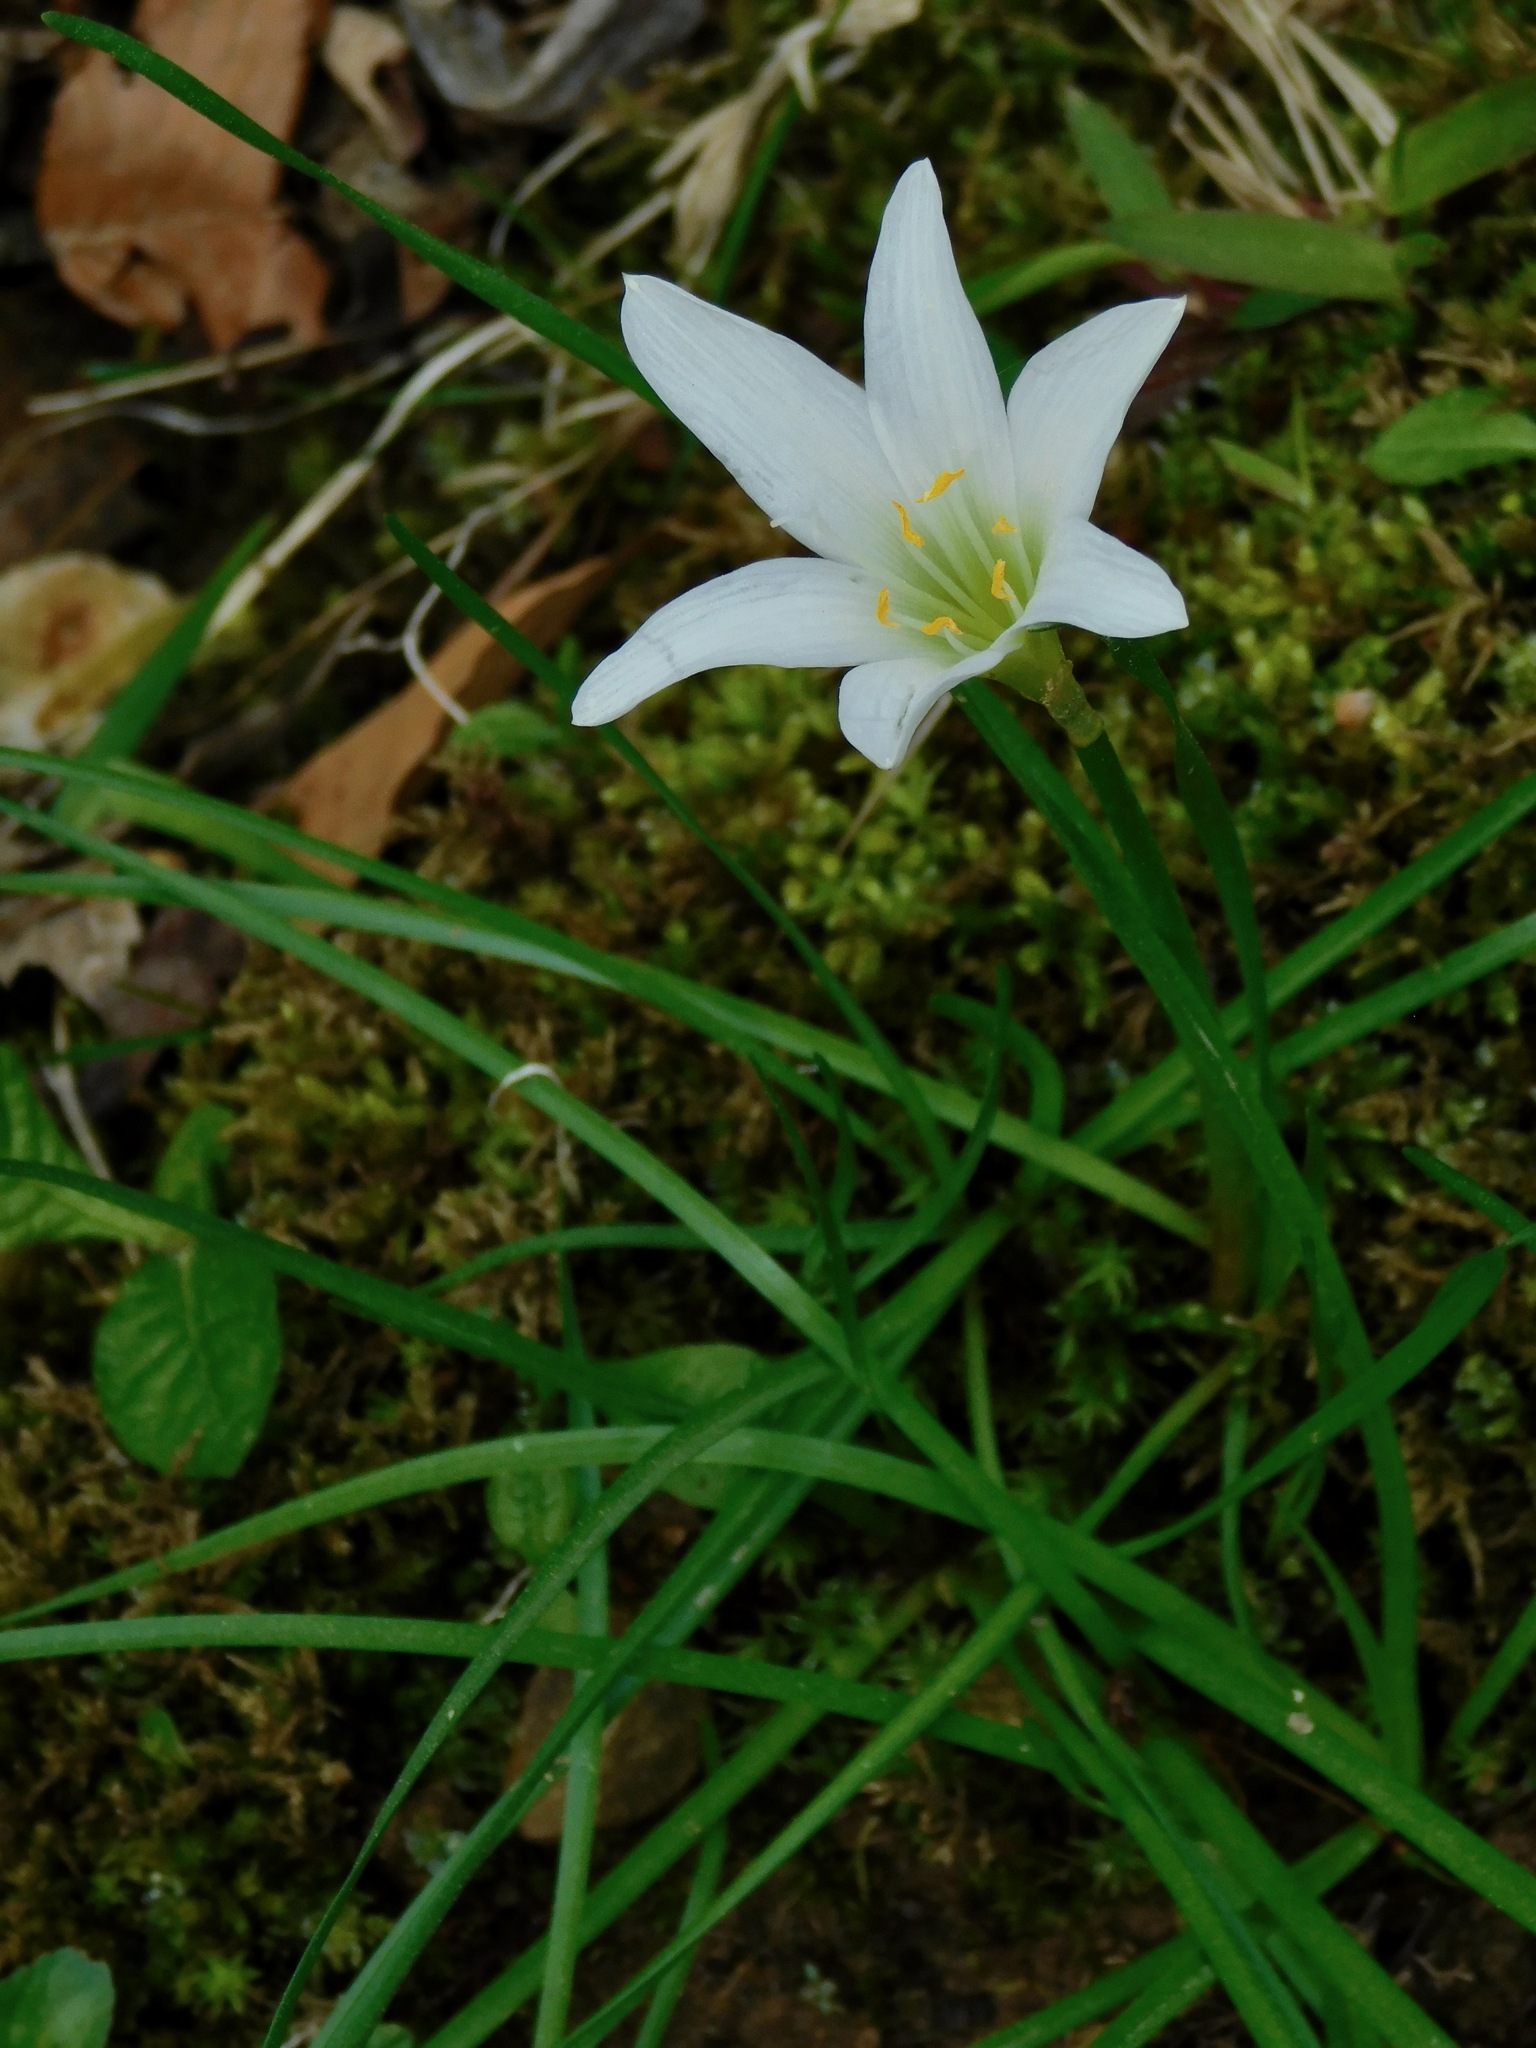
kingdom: Plantae
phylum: Tracheophyta
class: Liliopsida
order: Asparagales
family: Amaryllidaceae
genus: Zephyranthes
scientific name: Zephyranthes atamasco
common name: Atamasco lily
